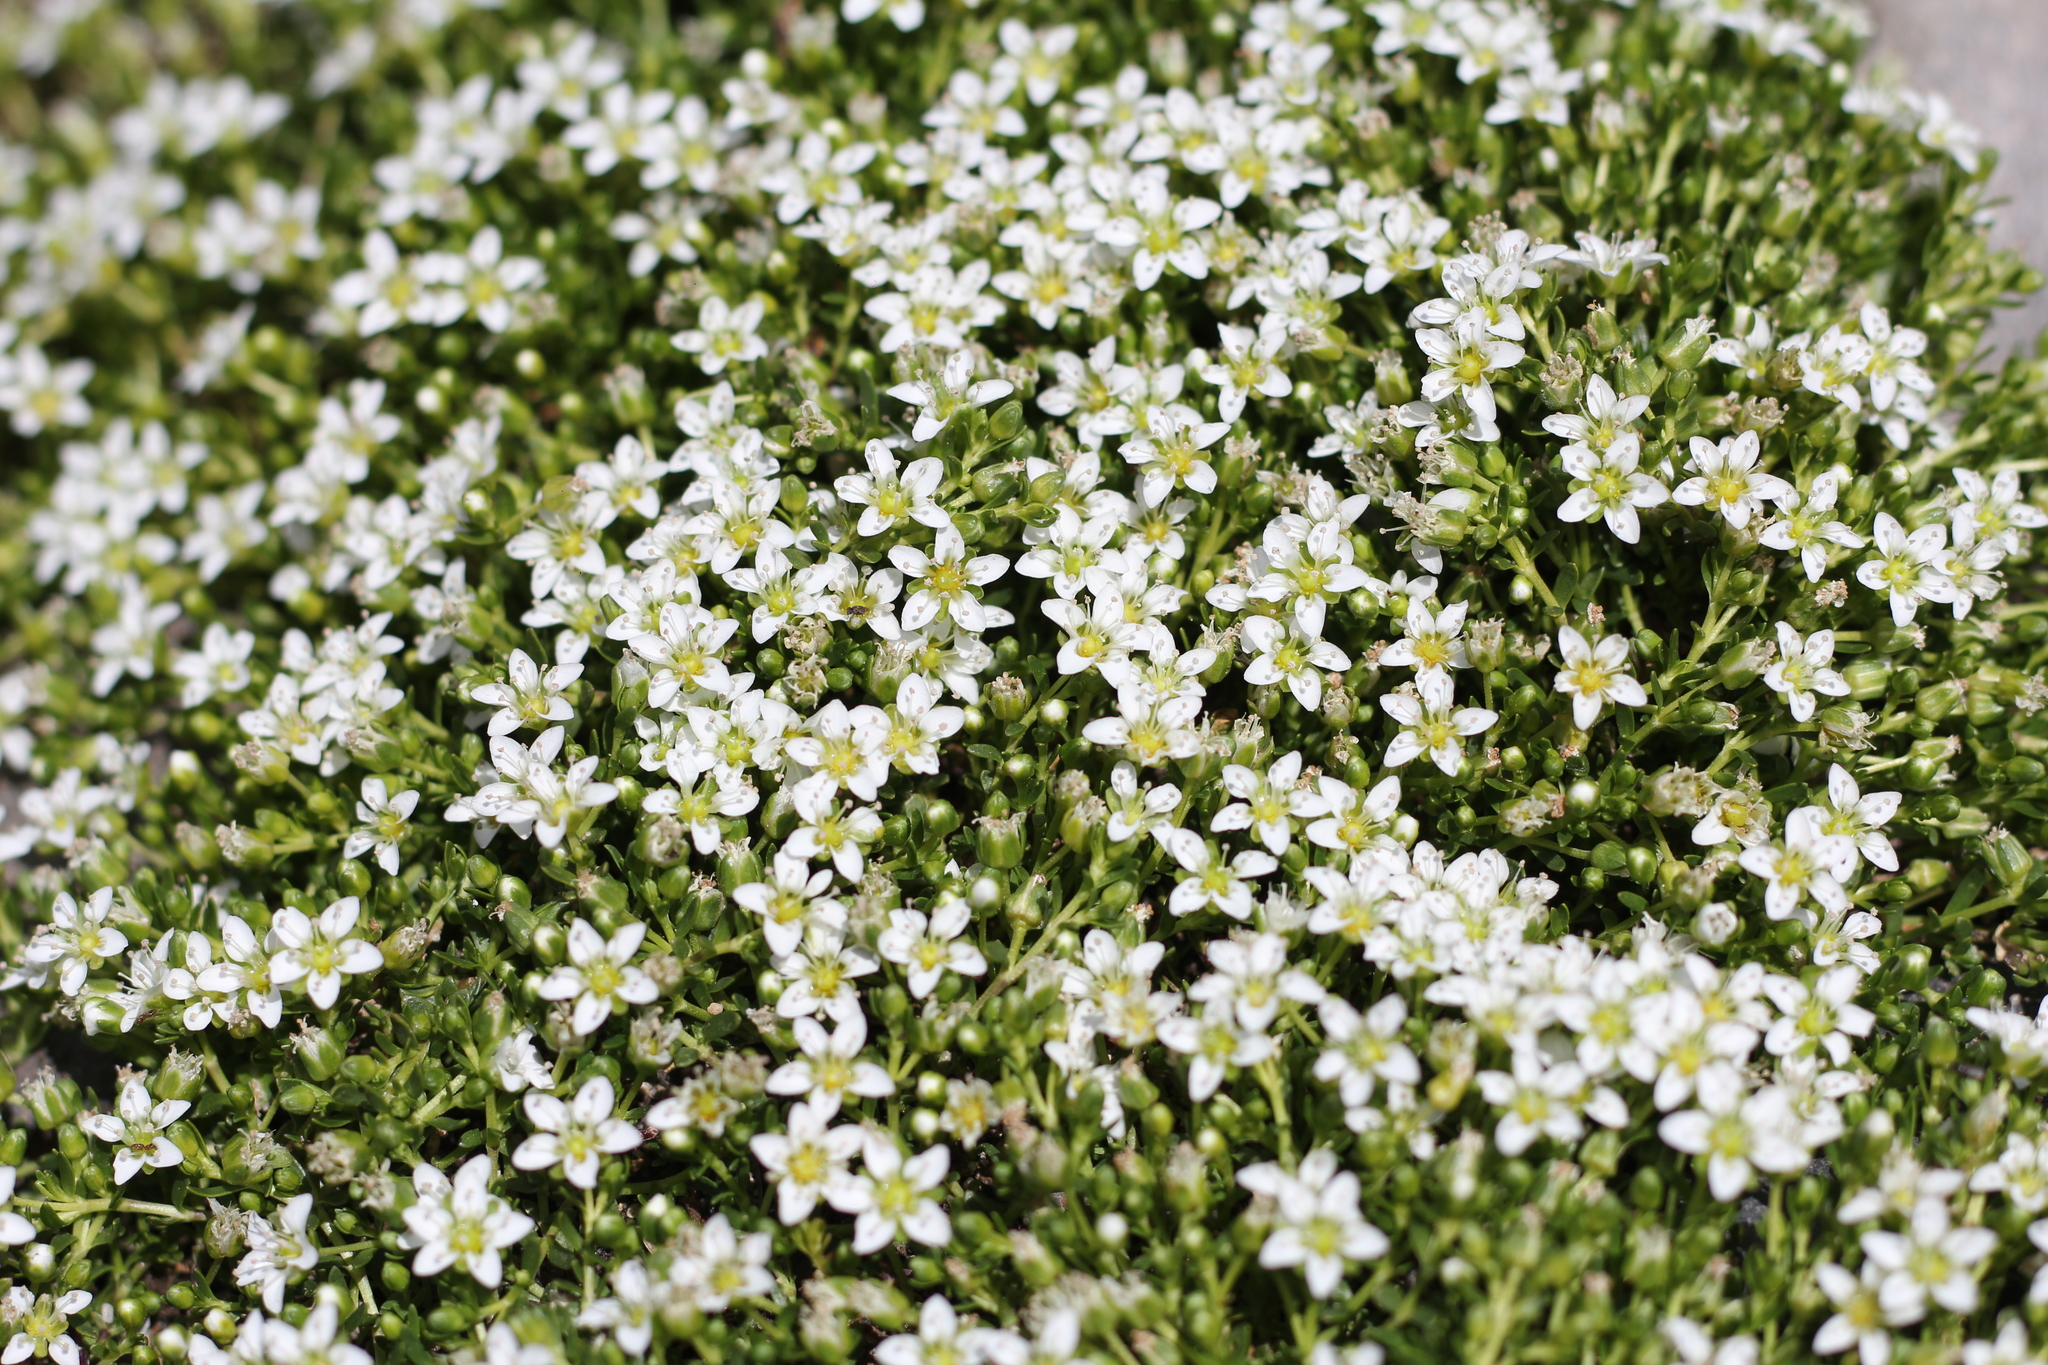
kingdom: Plantae
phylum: Tracheophyta
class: Magnoliopsida
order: Caryophyllales
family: Caryophyllaceae
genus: Arenaria
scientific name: Arenaria serpens
